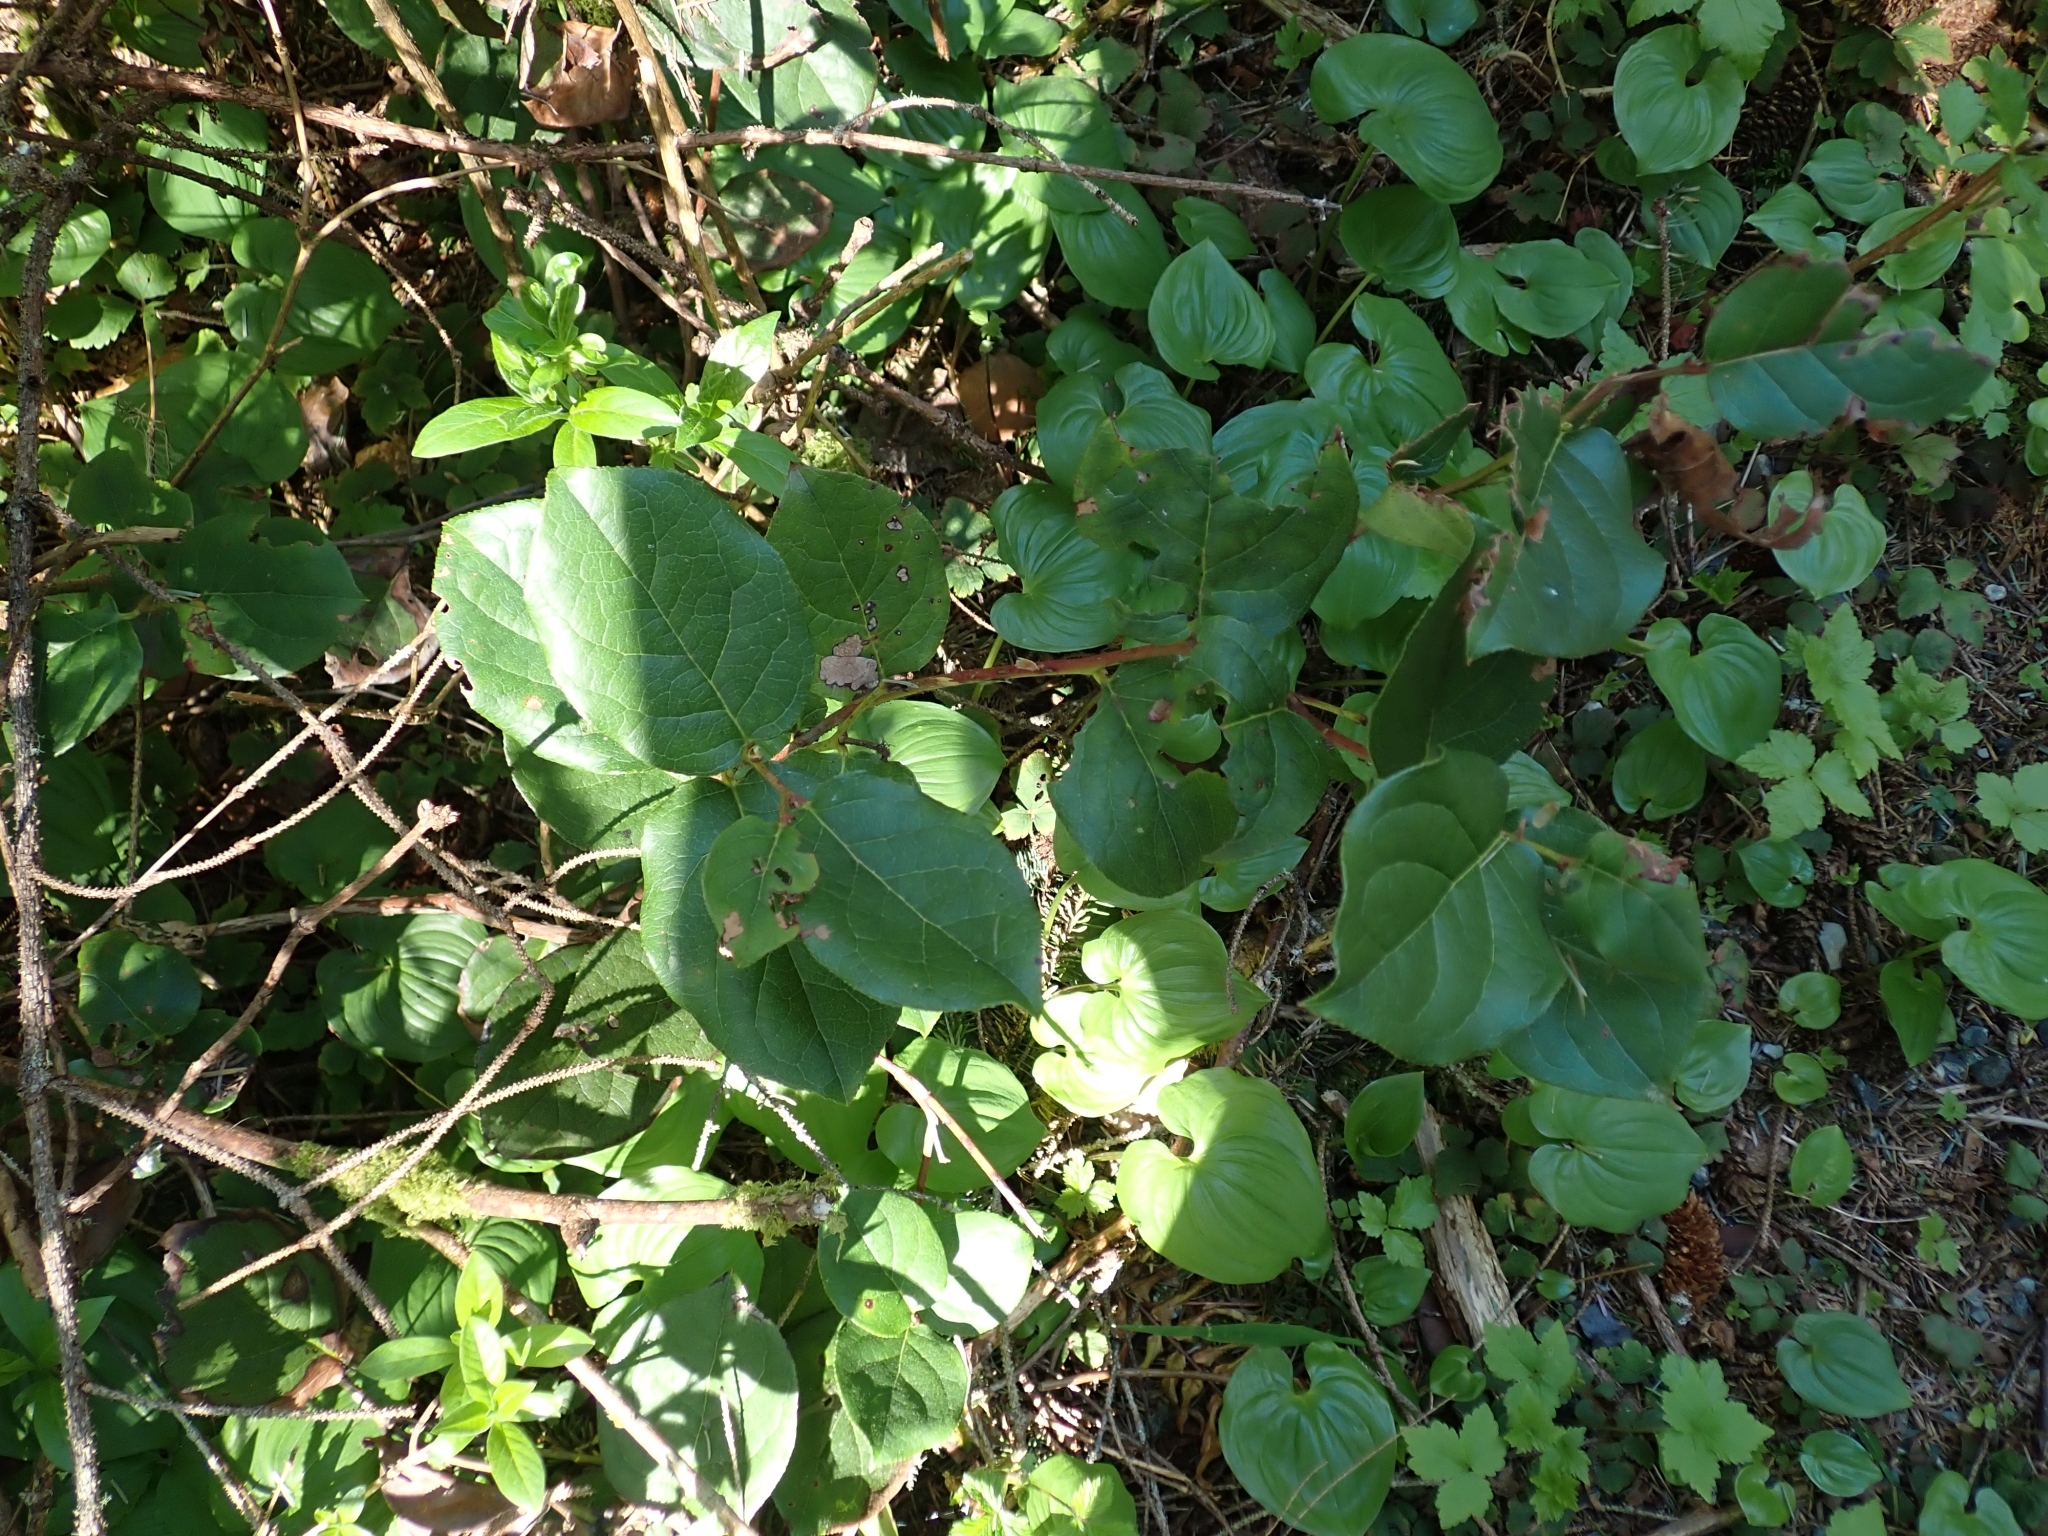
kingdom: Plantae
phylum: Tracheophyta
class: Magnoliopsida
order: Ericales
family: Ericaceae
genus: Gaultheria
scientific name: Gaultheria shallon
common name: Shallon
